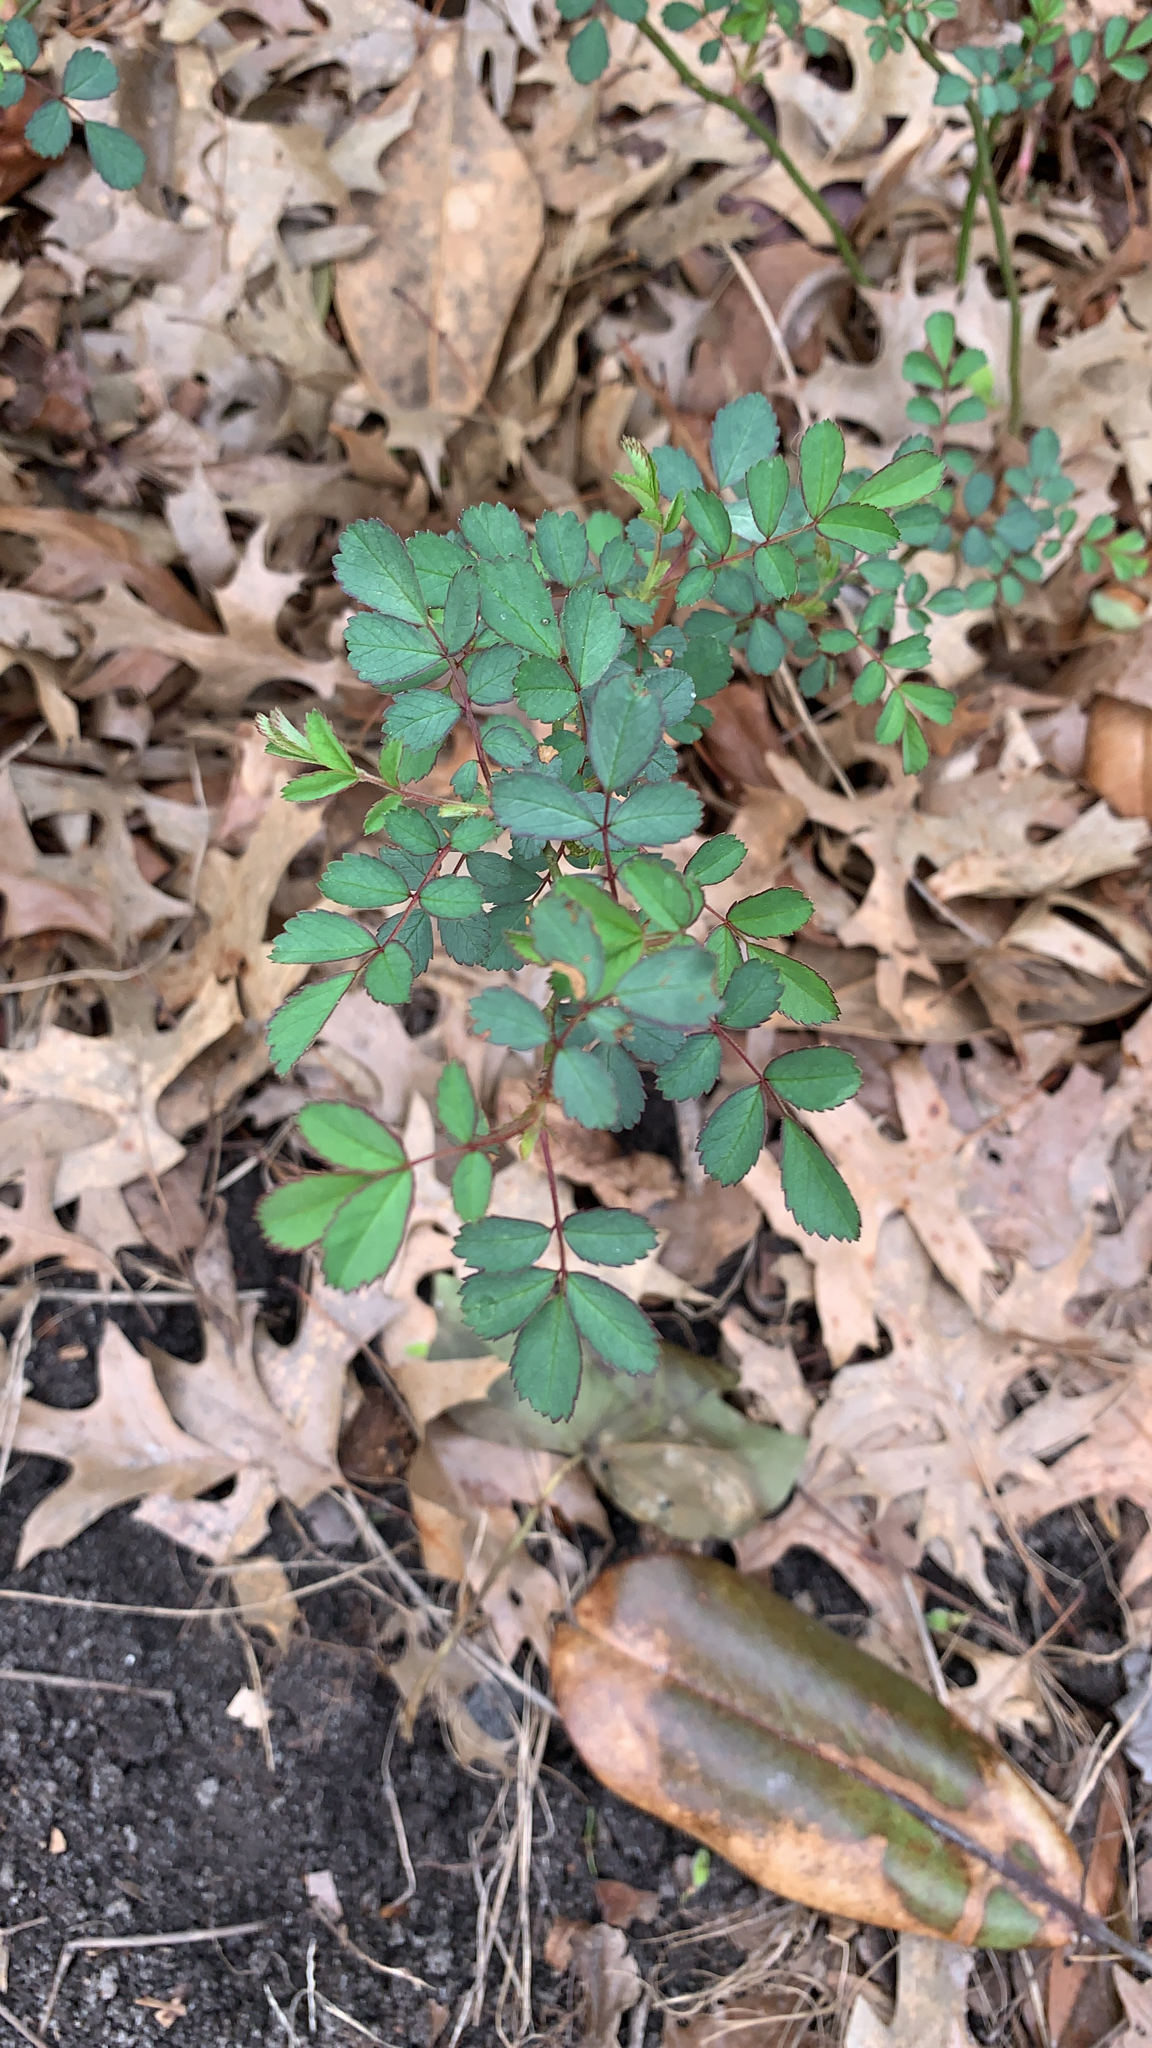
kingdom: Plantae
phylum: Tracheophyta
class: Magnoliopsida
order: Rosales
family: Rosaceae
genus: Rosa
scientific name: Rosa multiflora
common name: Multiflora rose
